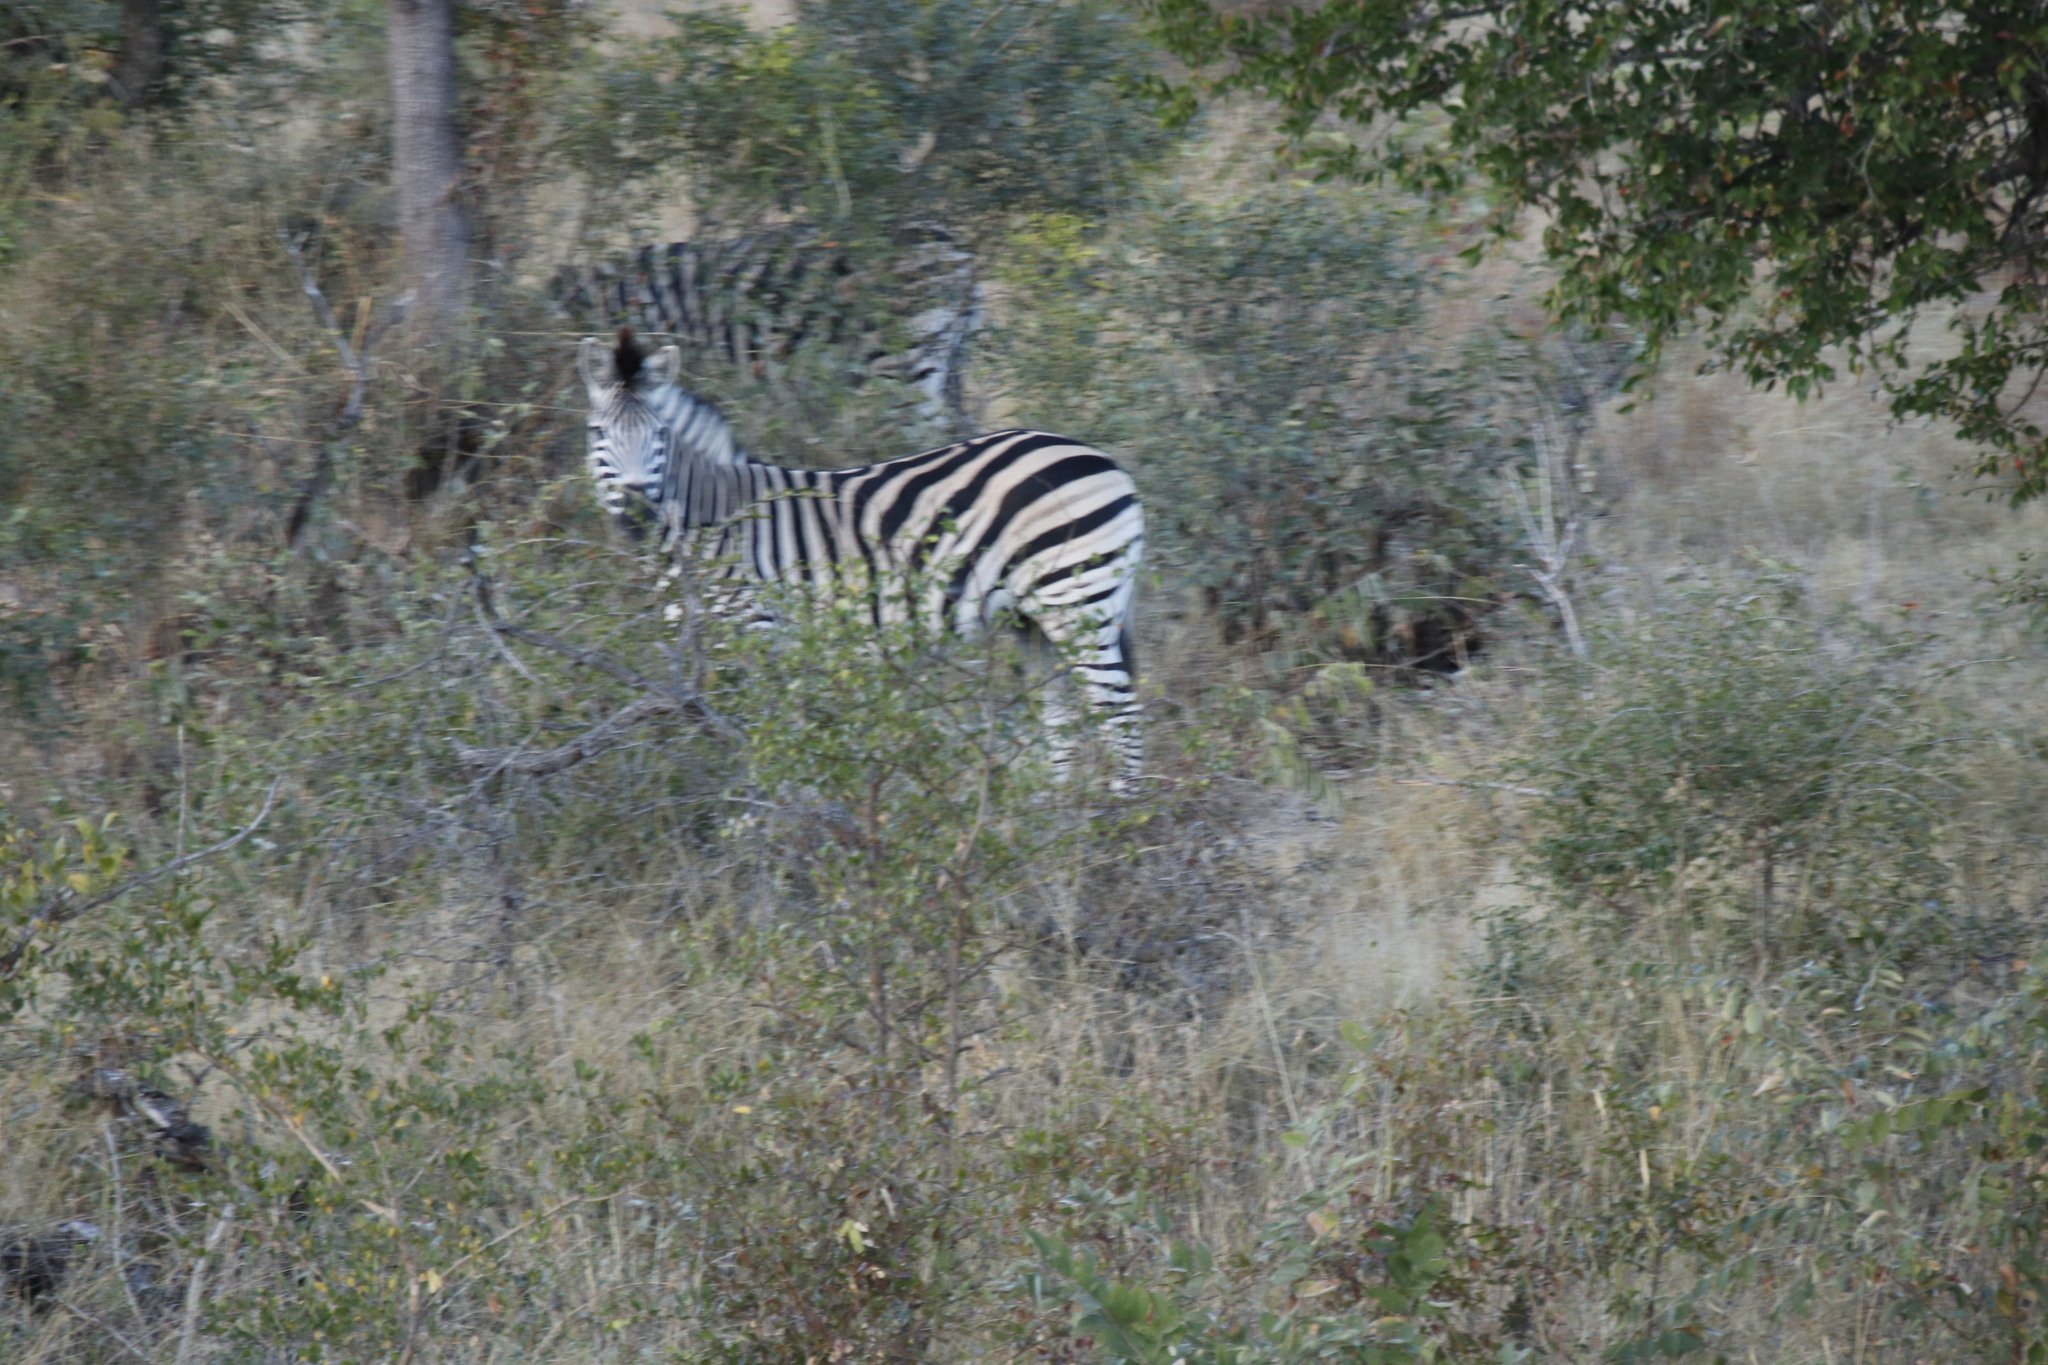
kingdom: Animalia
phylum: Chordata
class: Mammalia
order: Perissodactyla
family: Equidae
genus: Equus
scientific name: Equus quagga
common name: Plains zebra
